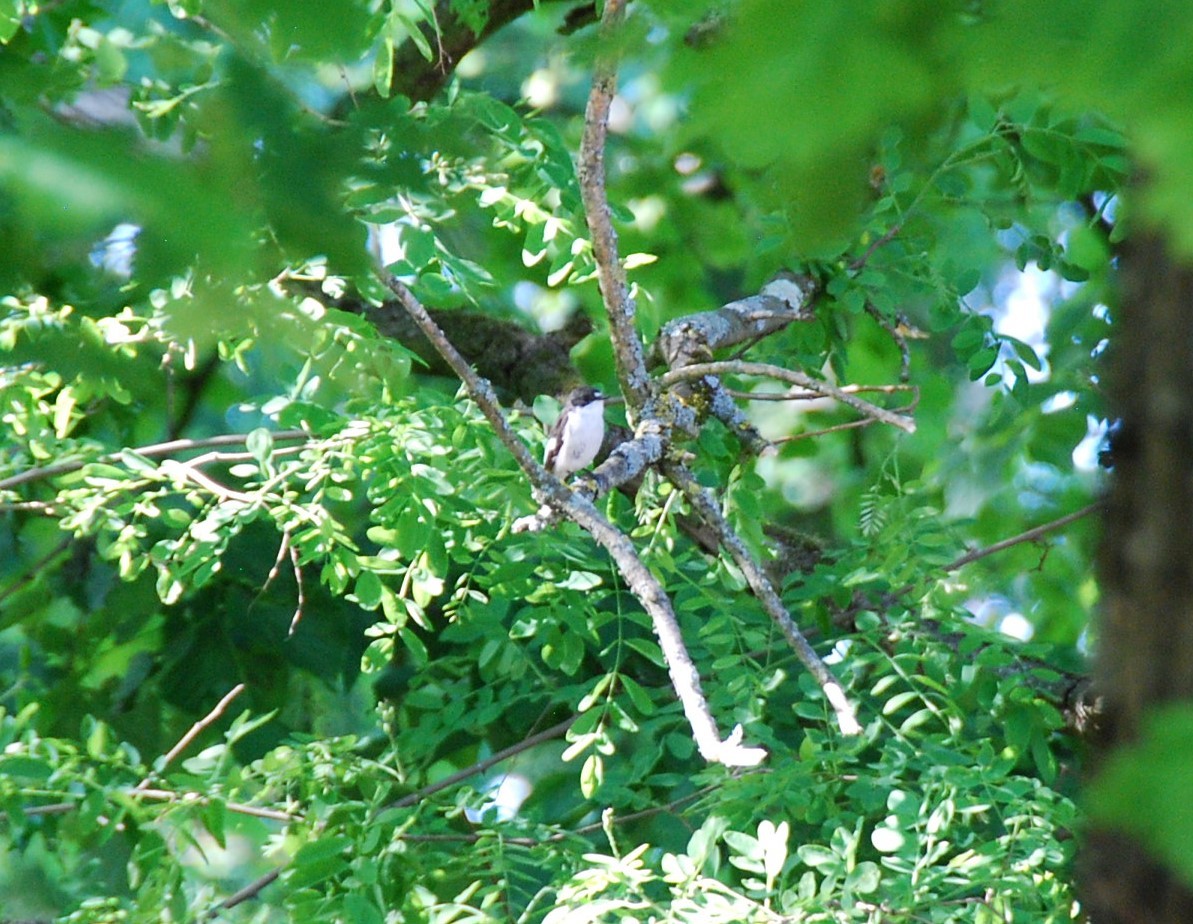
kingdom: Animalia
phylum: Chordata
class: Aves
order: Passeriformes
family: Muscicapidae
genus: Ficedula
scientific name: Ficedula hypoleuca
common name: European pied flycatcher
